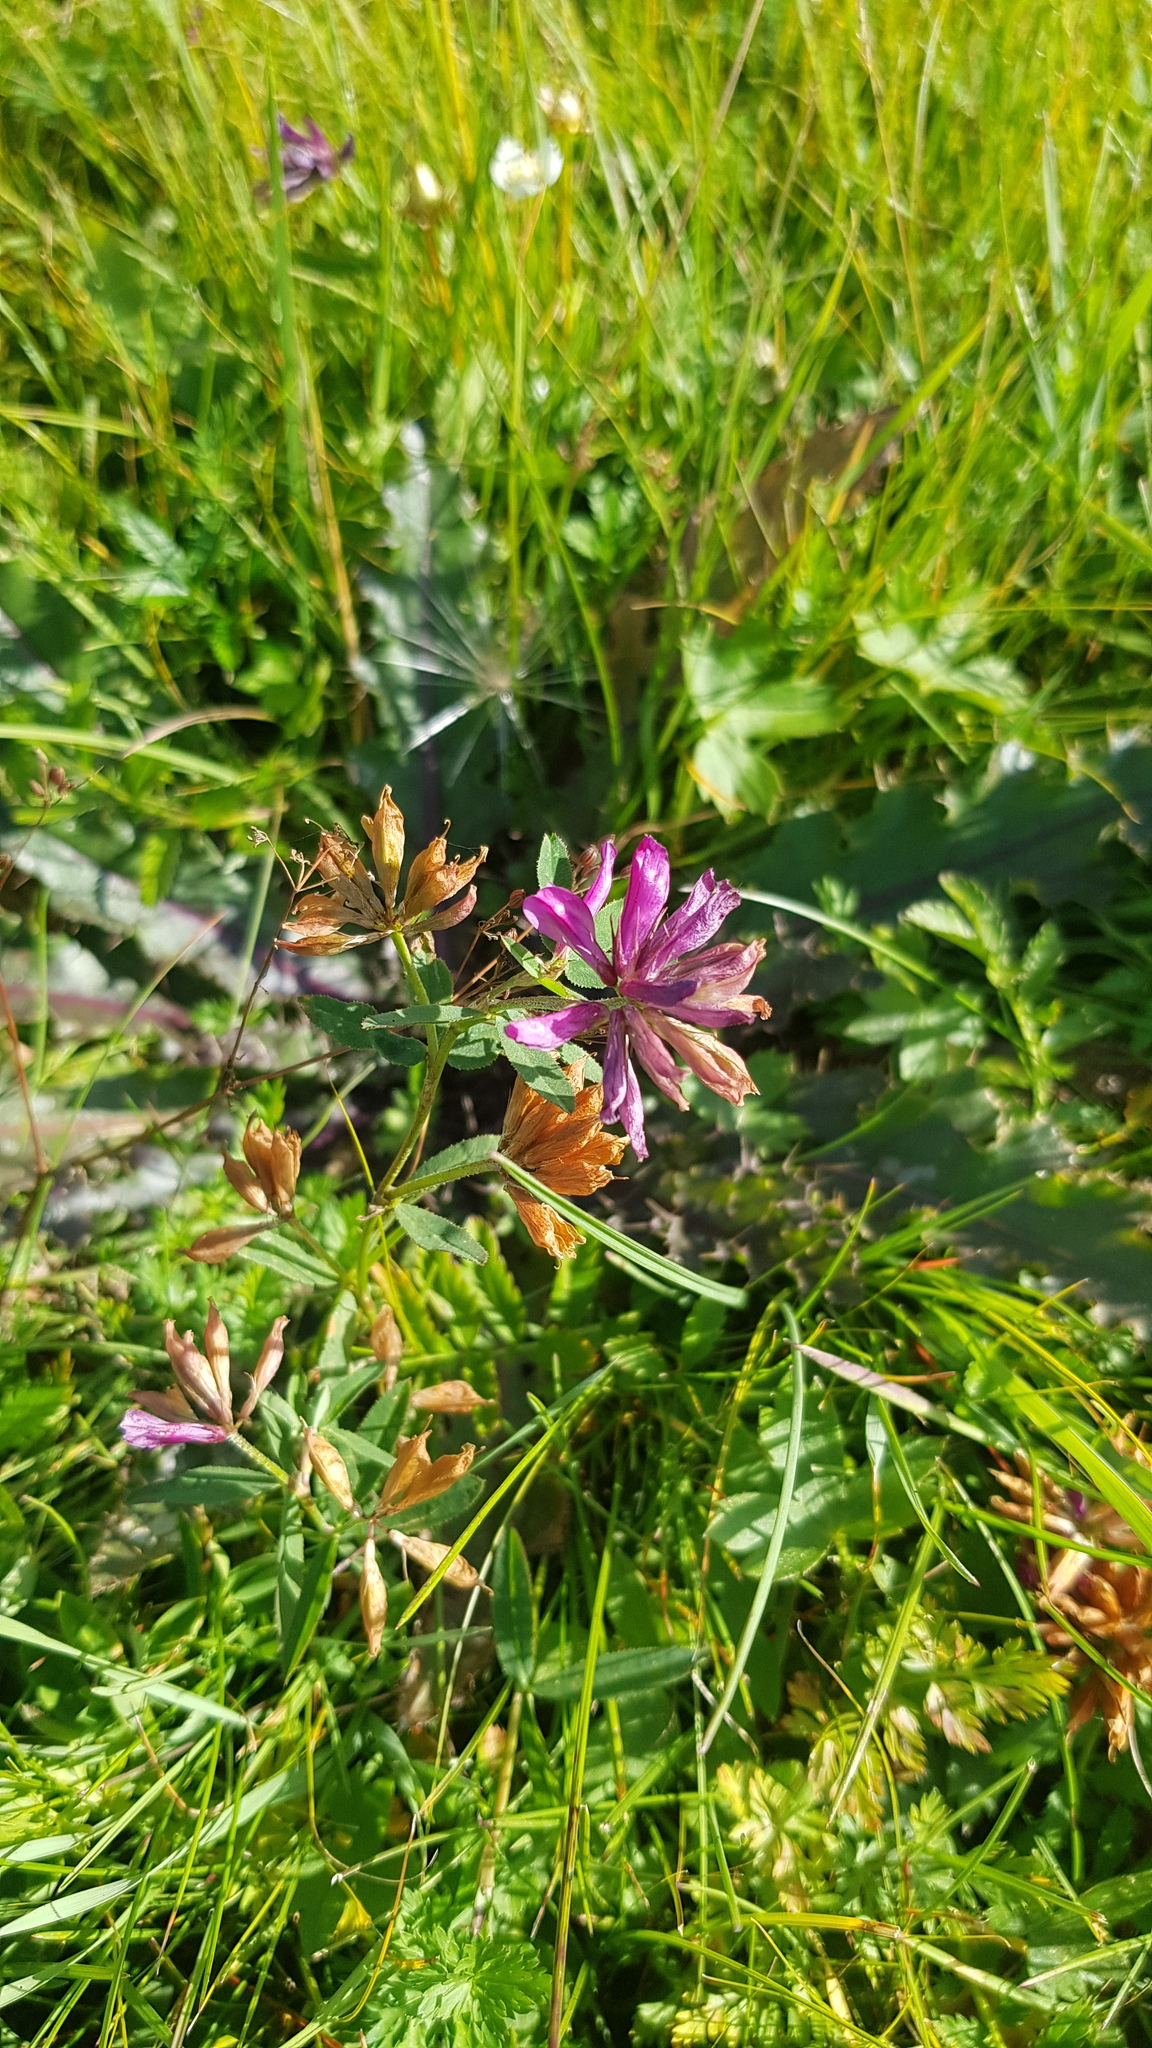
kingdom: Plantae
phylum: Tracheophyta
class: Magnoliopsida
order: Fabales
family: Fabaceae
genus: Trifolium
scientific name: Trifolium lupinaster
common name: Lupine clover
